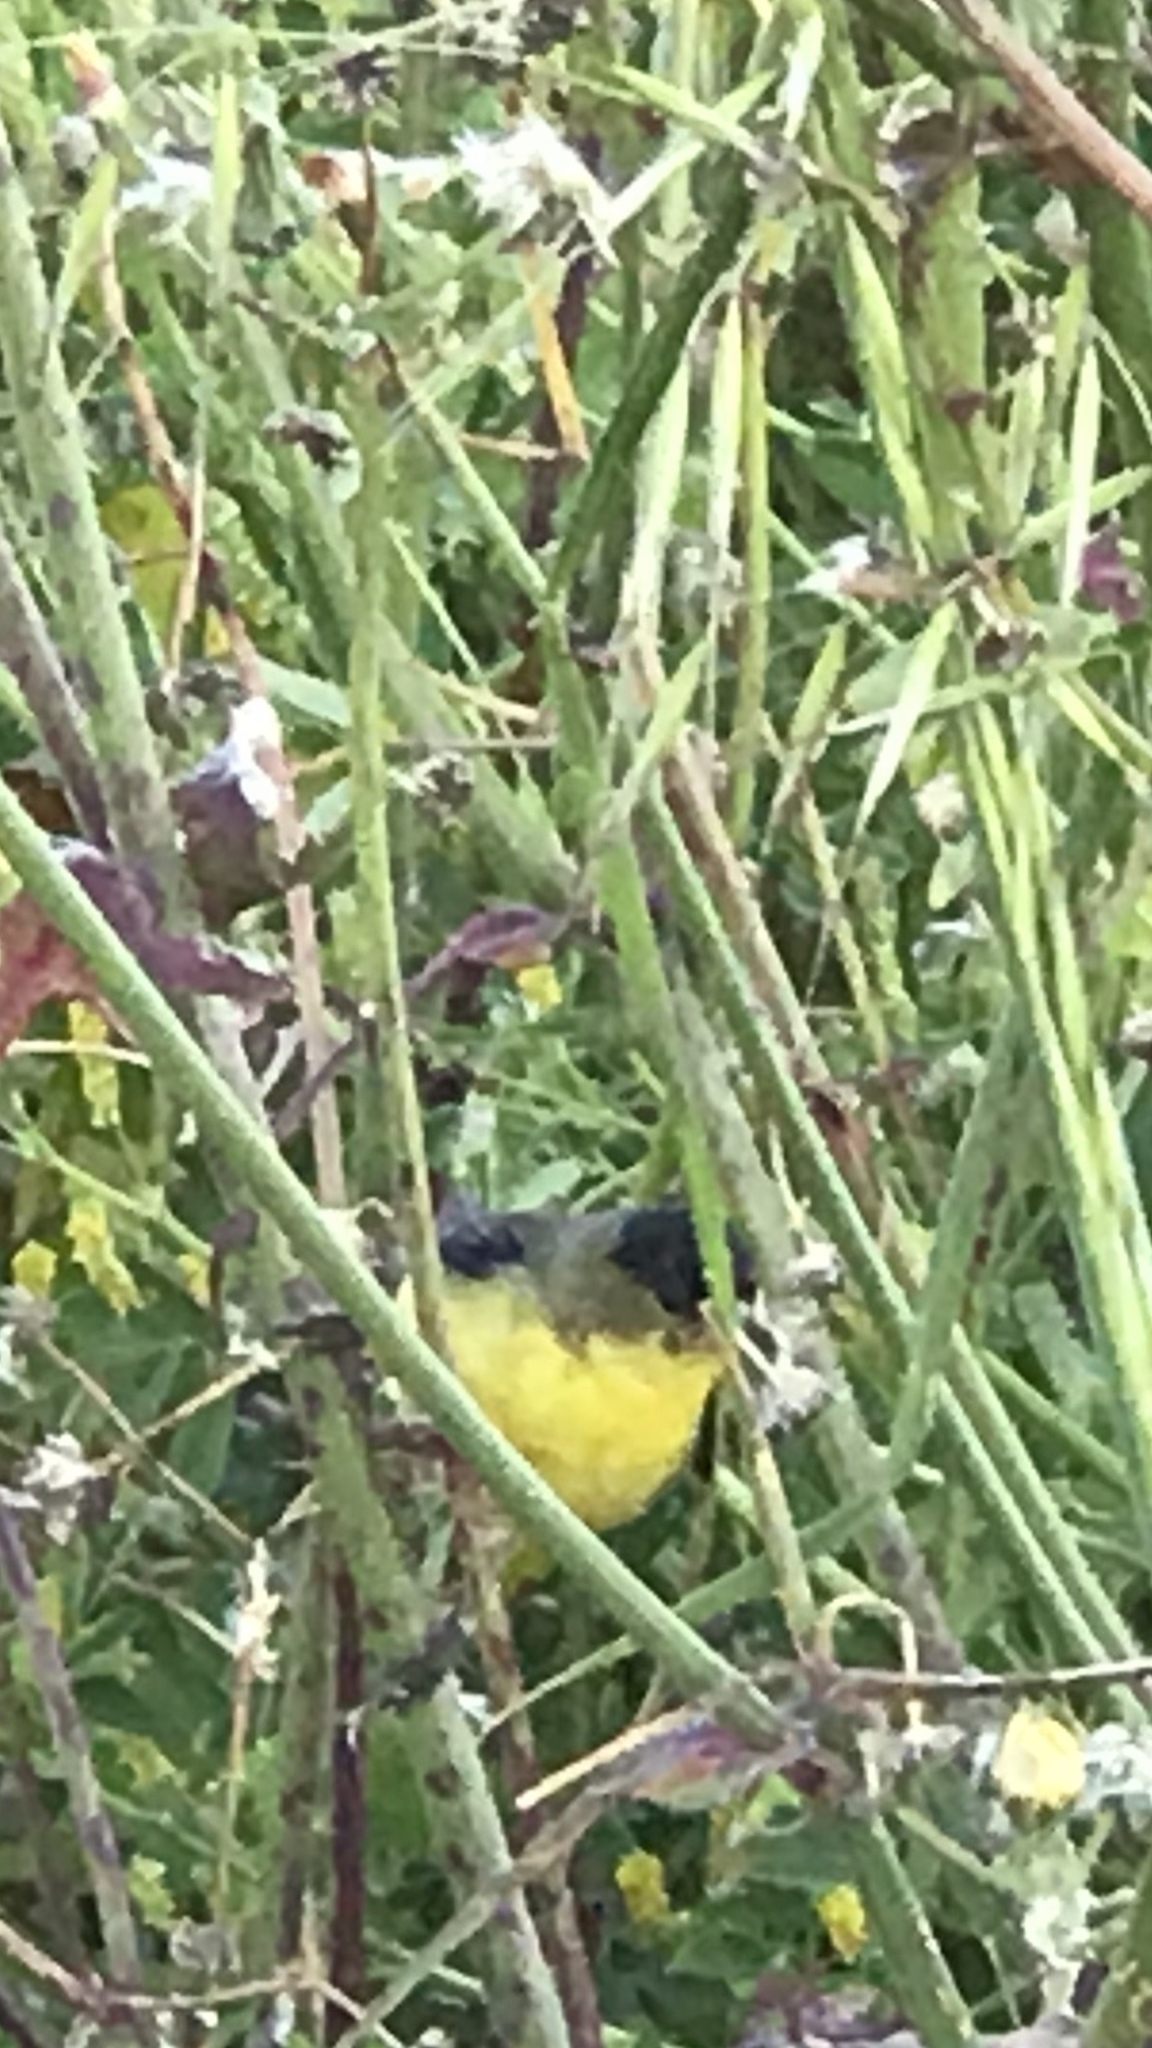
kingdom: Animalia
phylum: Chordata
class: Aves
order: Passeriformes
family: Fringillidae
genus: Spinus
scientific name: Spinus psaltria
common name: Lesser goldfinch
